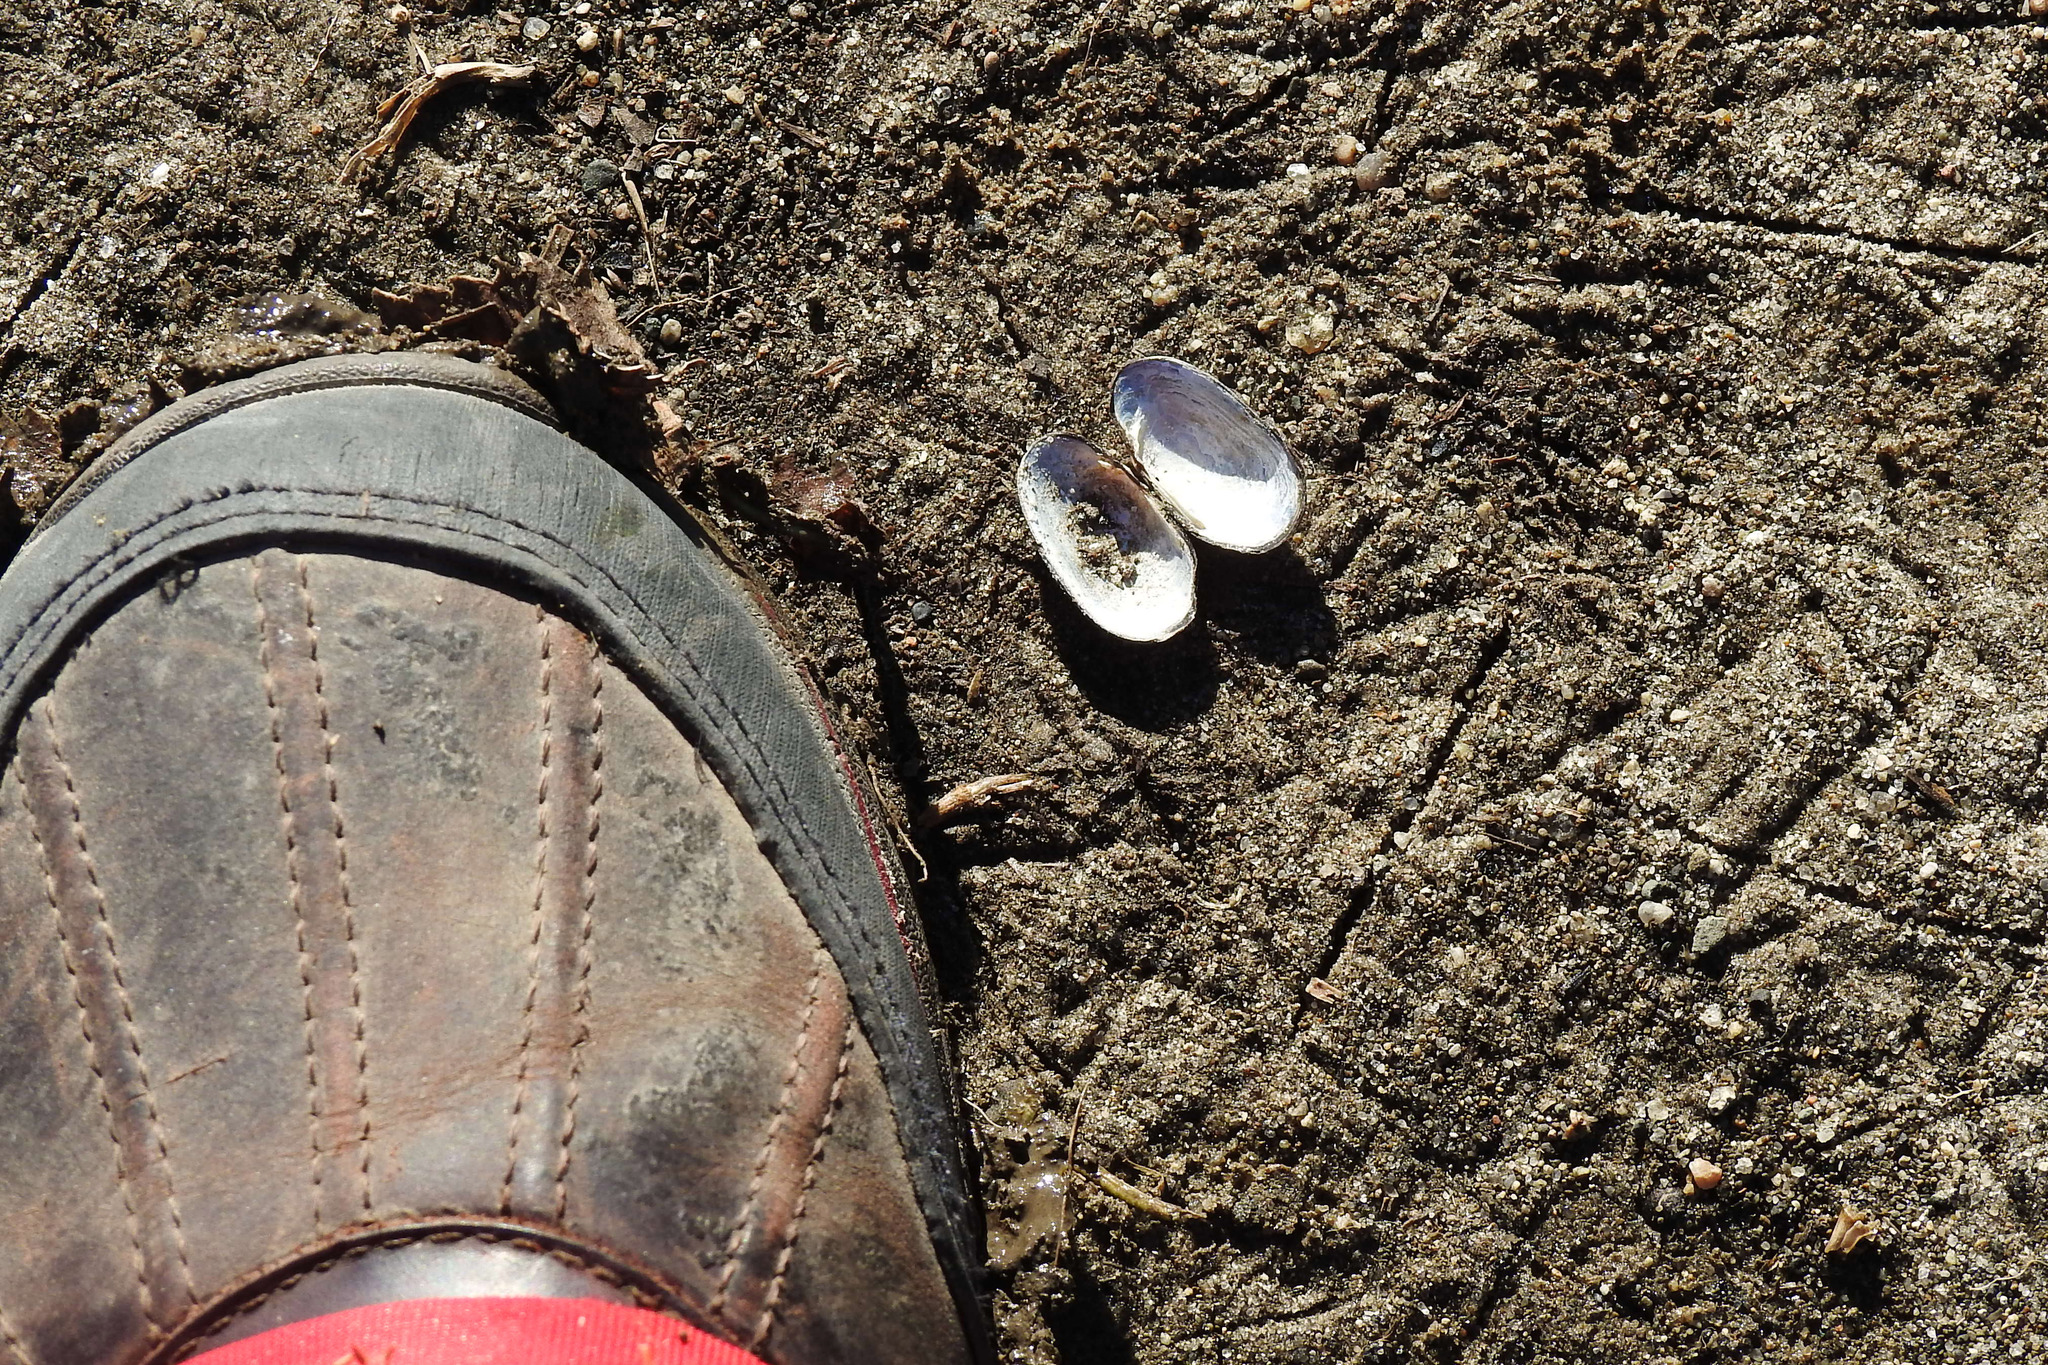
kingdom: Animalia
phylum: Mollusca
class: Bivalvia
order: Unionida
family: Unionidae
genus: Toxolasma
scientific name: Toxolasma parvum
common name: Lilliput
